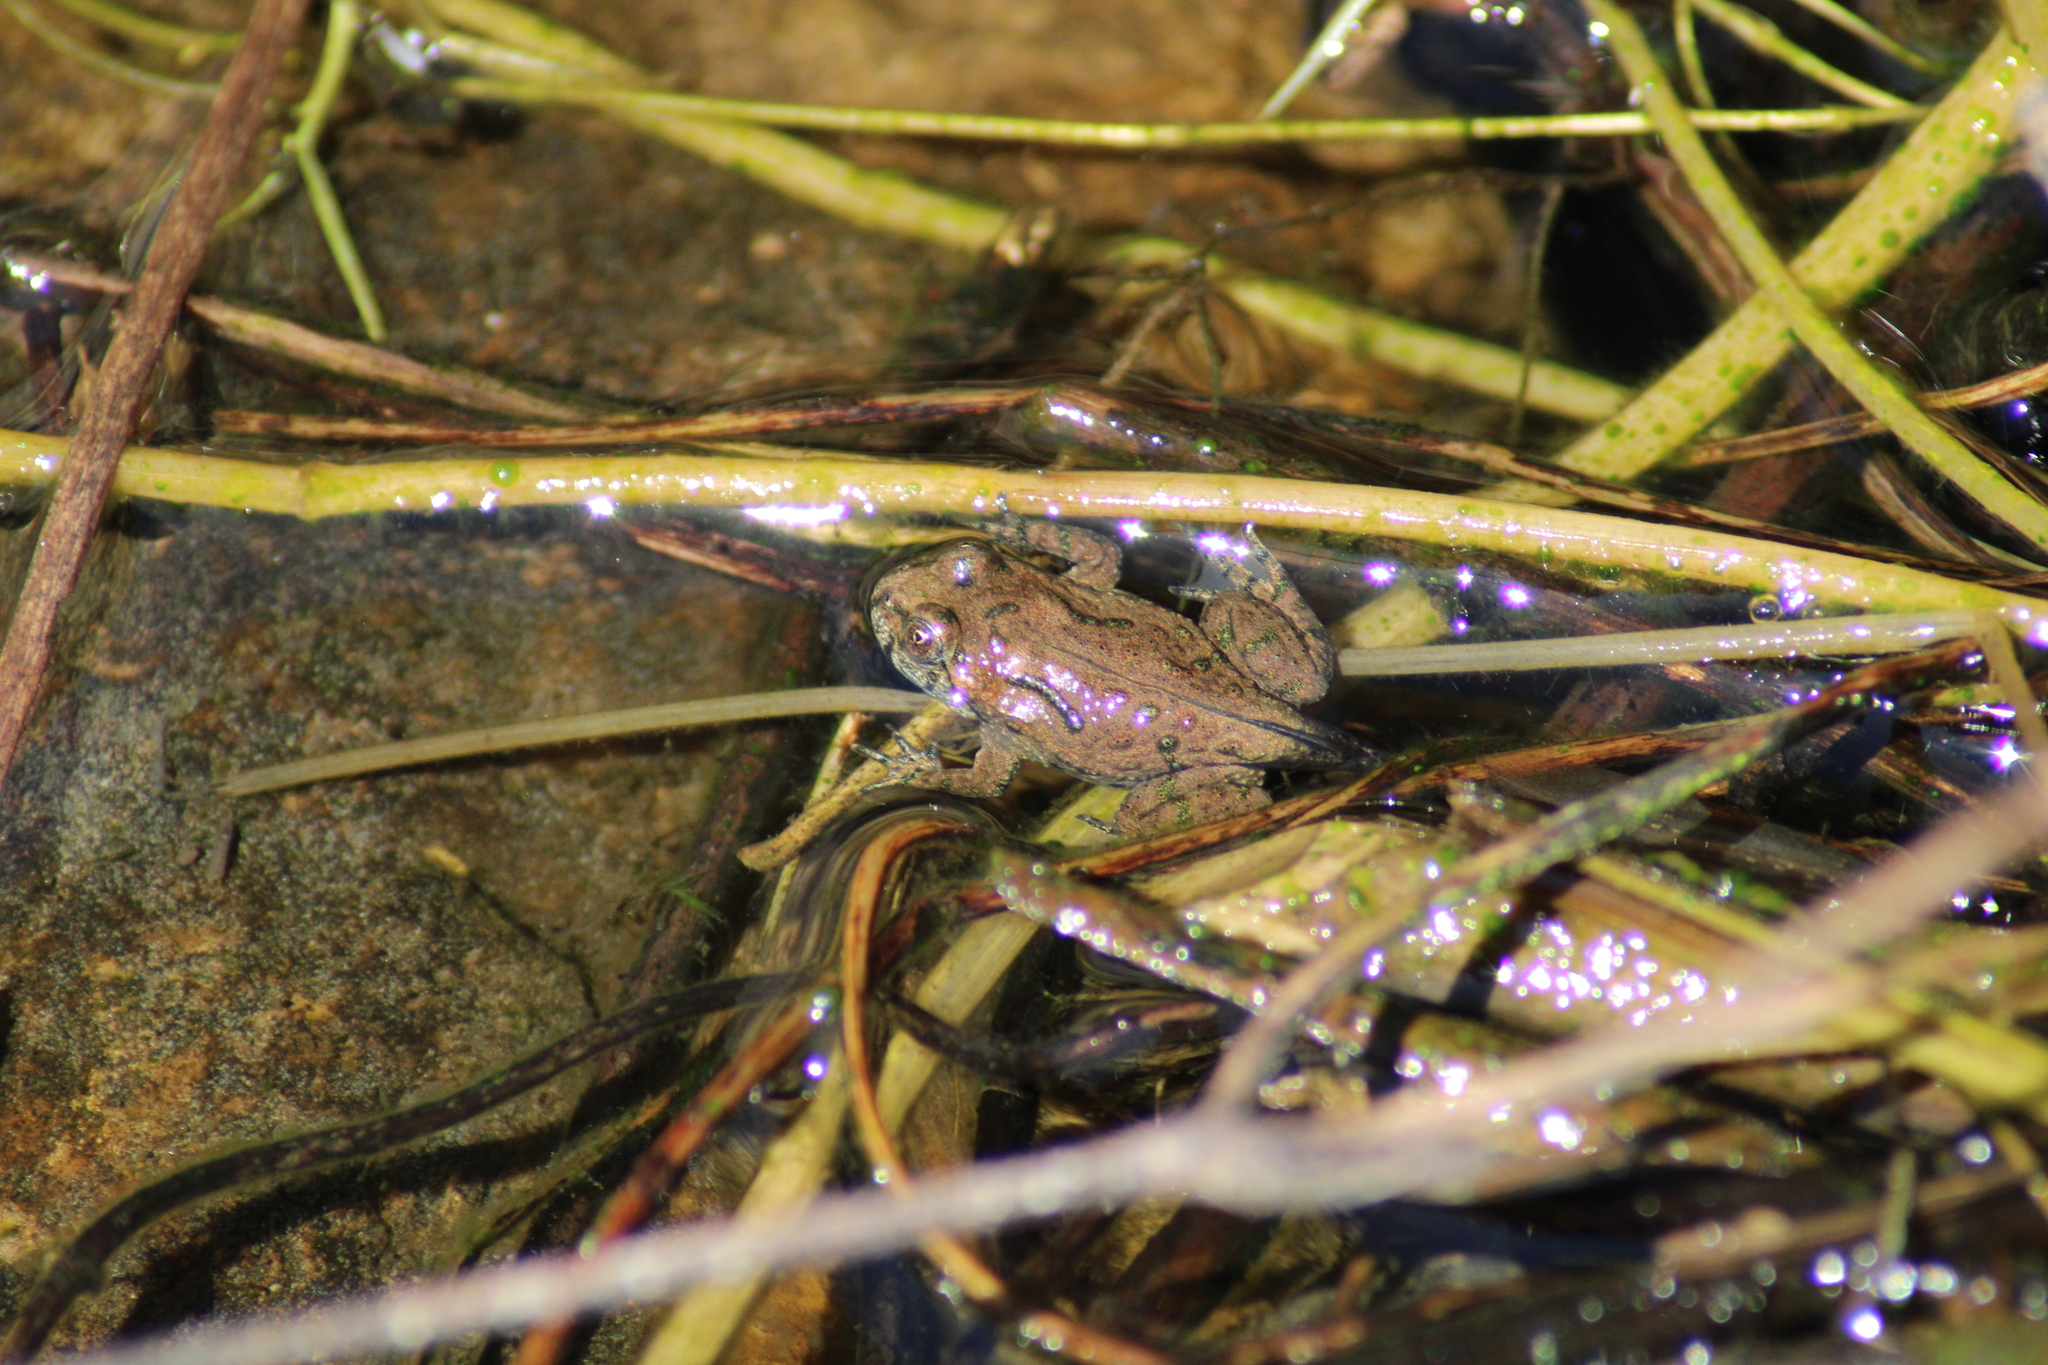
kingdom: Animalia
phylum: Chordata
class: Amphibia
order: Anura
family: Bombinatoridae
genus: Bombina
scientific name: Bombina bombina
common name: Fire-bellied toad
